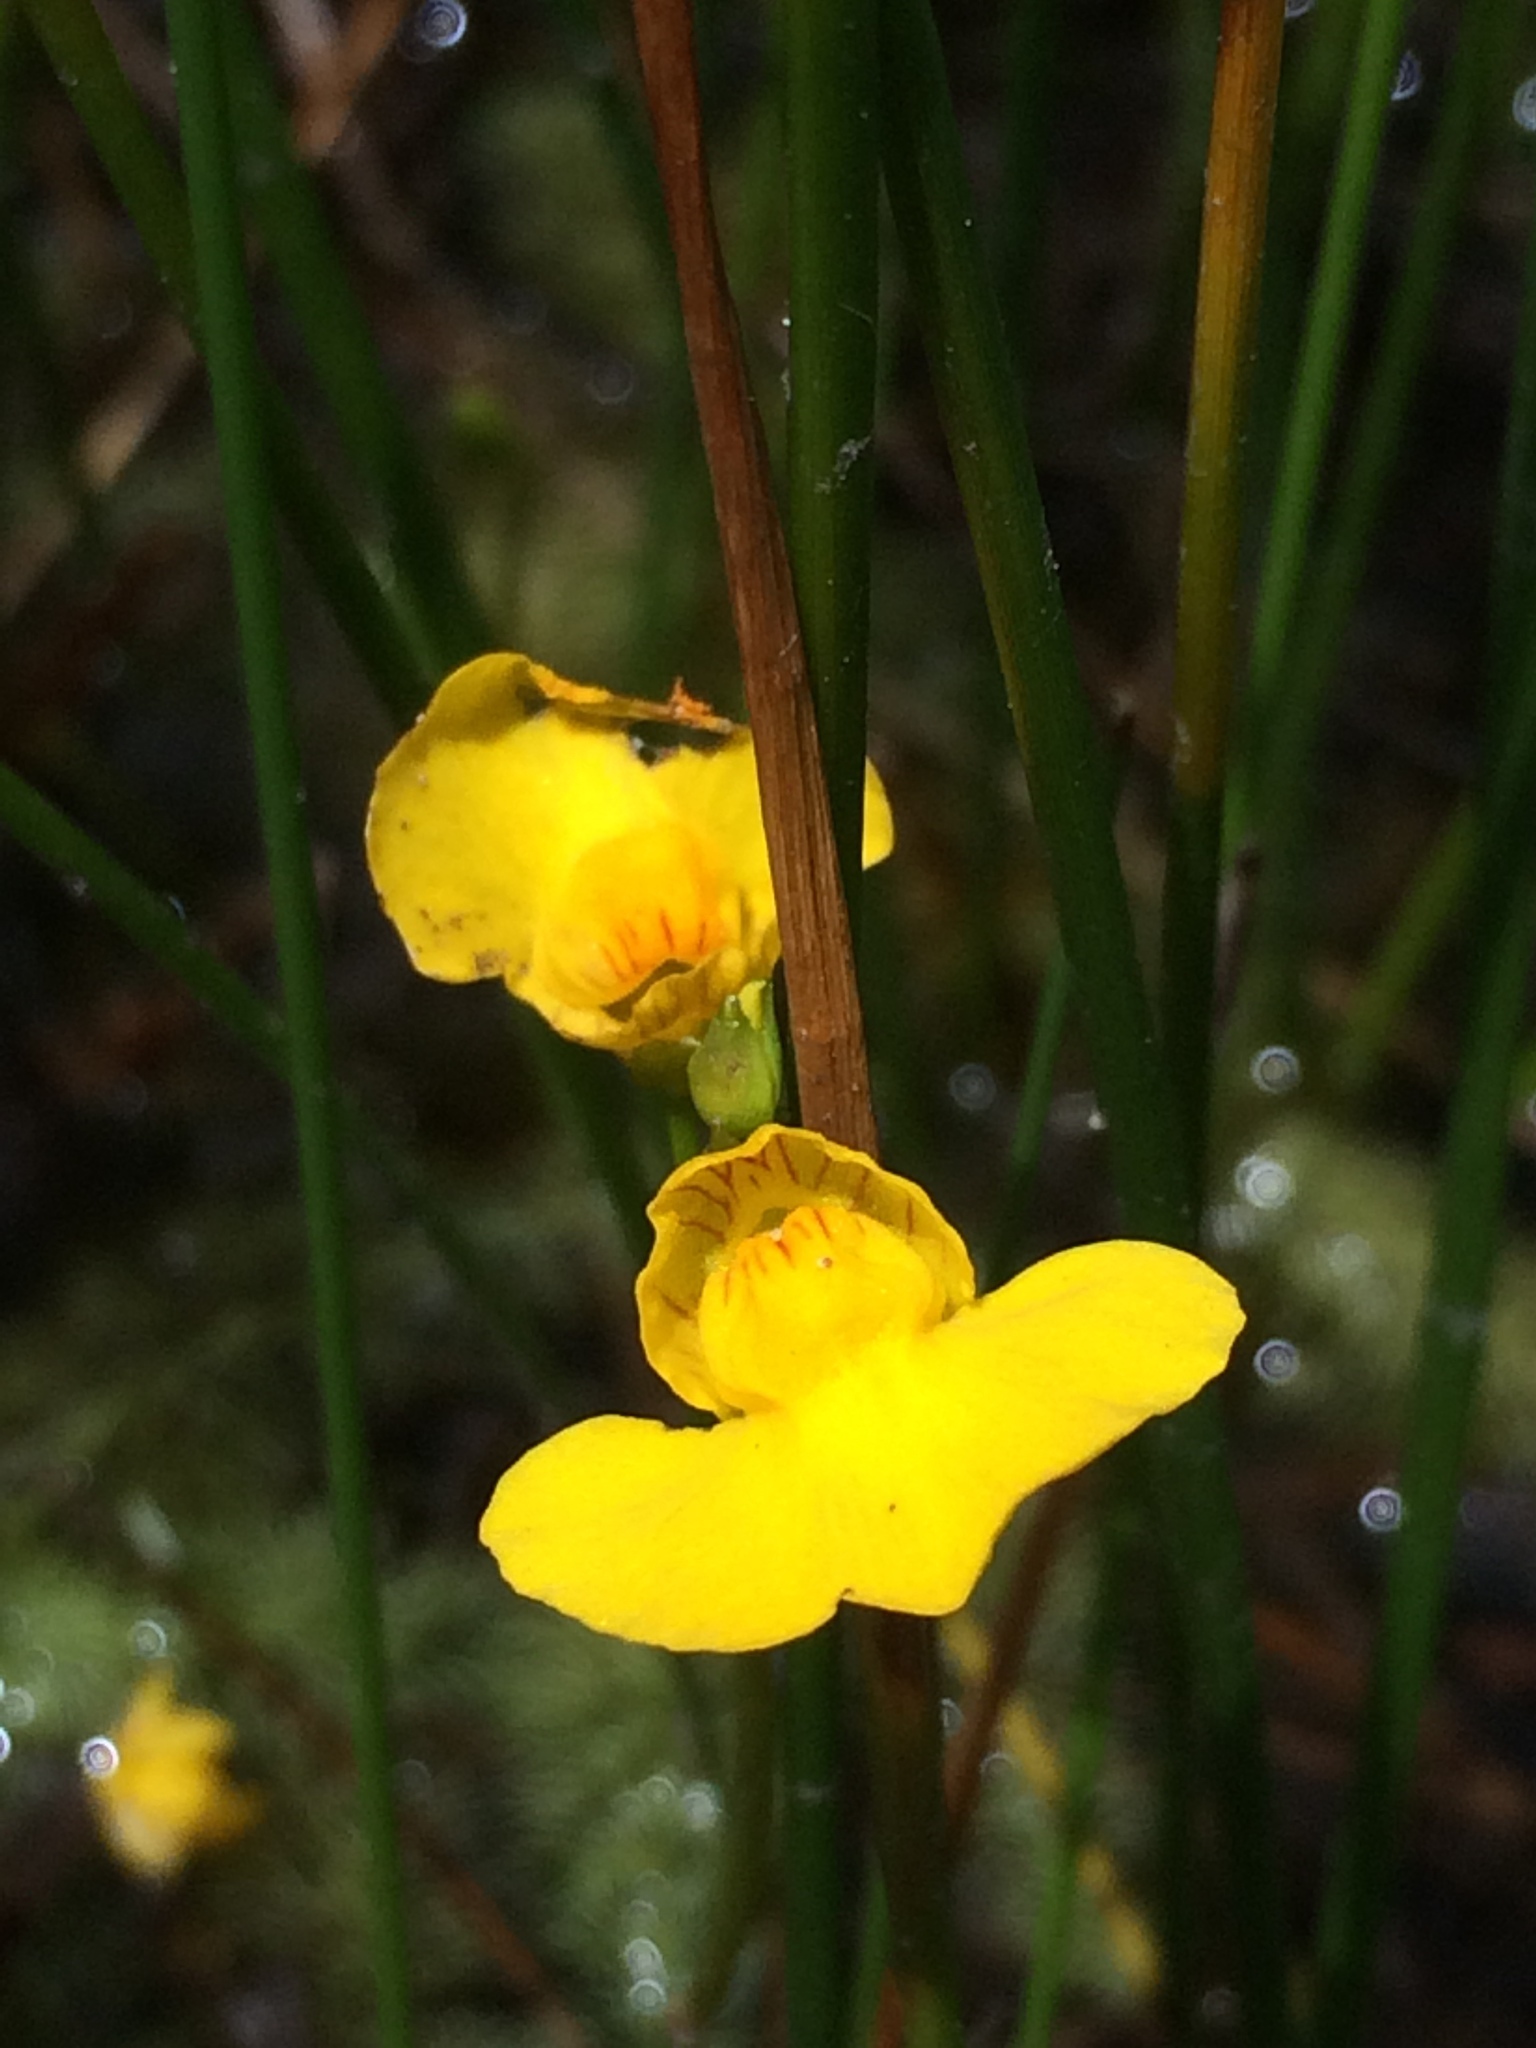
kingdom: Plantae
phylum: Tracheophyta
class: Magnoliopsida
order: Lamiales
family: Lentibulariaceae
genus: Utricularia
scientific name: Utricularia intermedia
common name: Intermediate bladderwort
